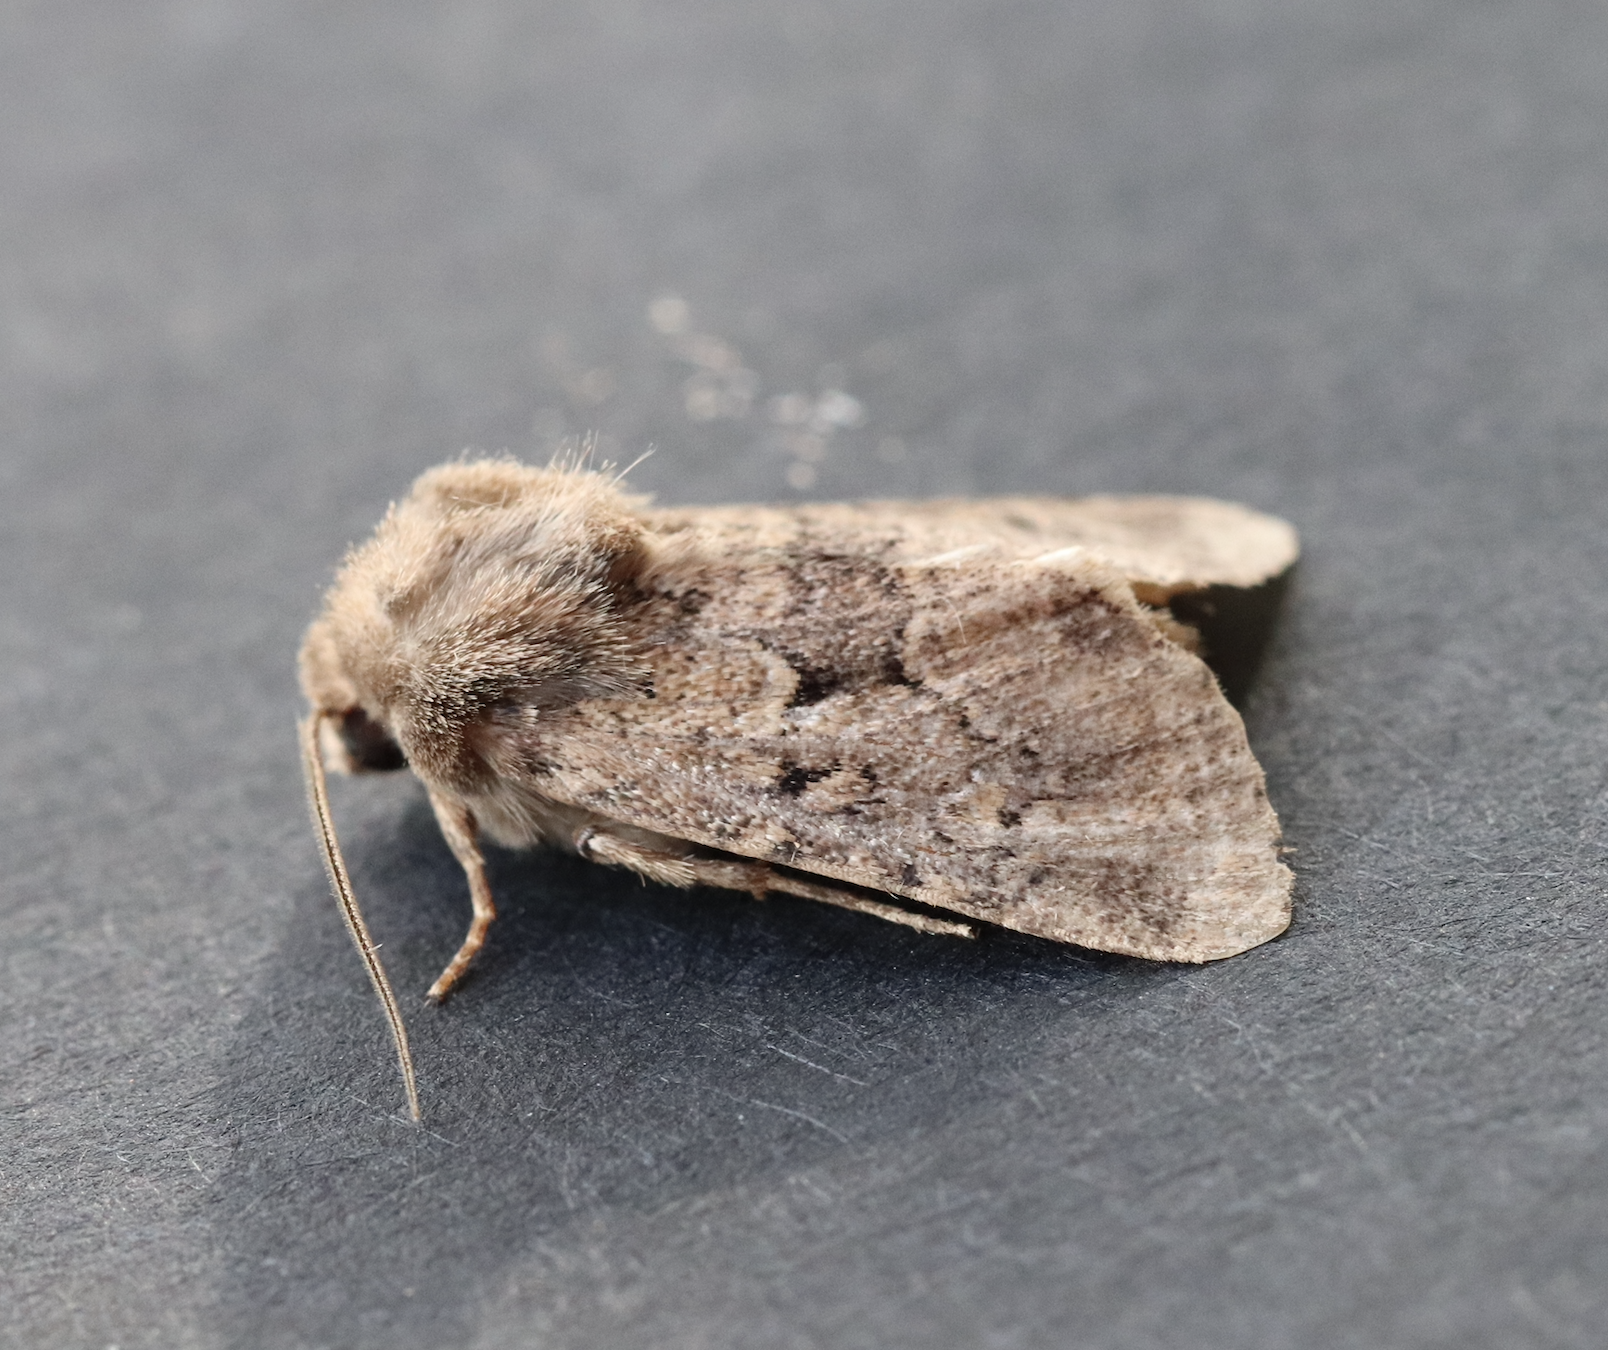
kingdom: Animalia
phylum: Arthropoda
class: Insecta
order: Lepidoptera
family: Noctuidae
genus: Luperina
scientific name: Luperina testacea
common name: Flounced rustic
